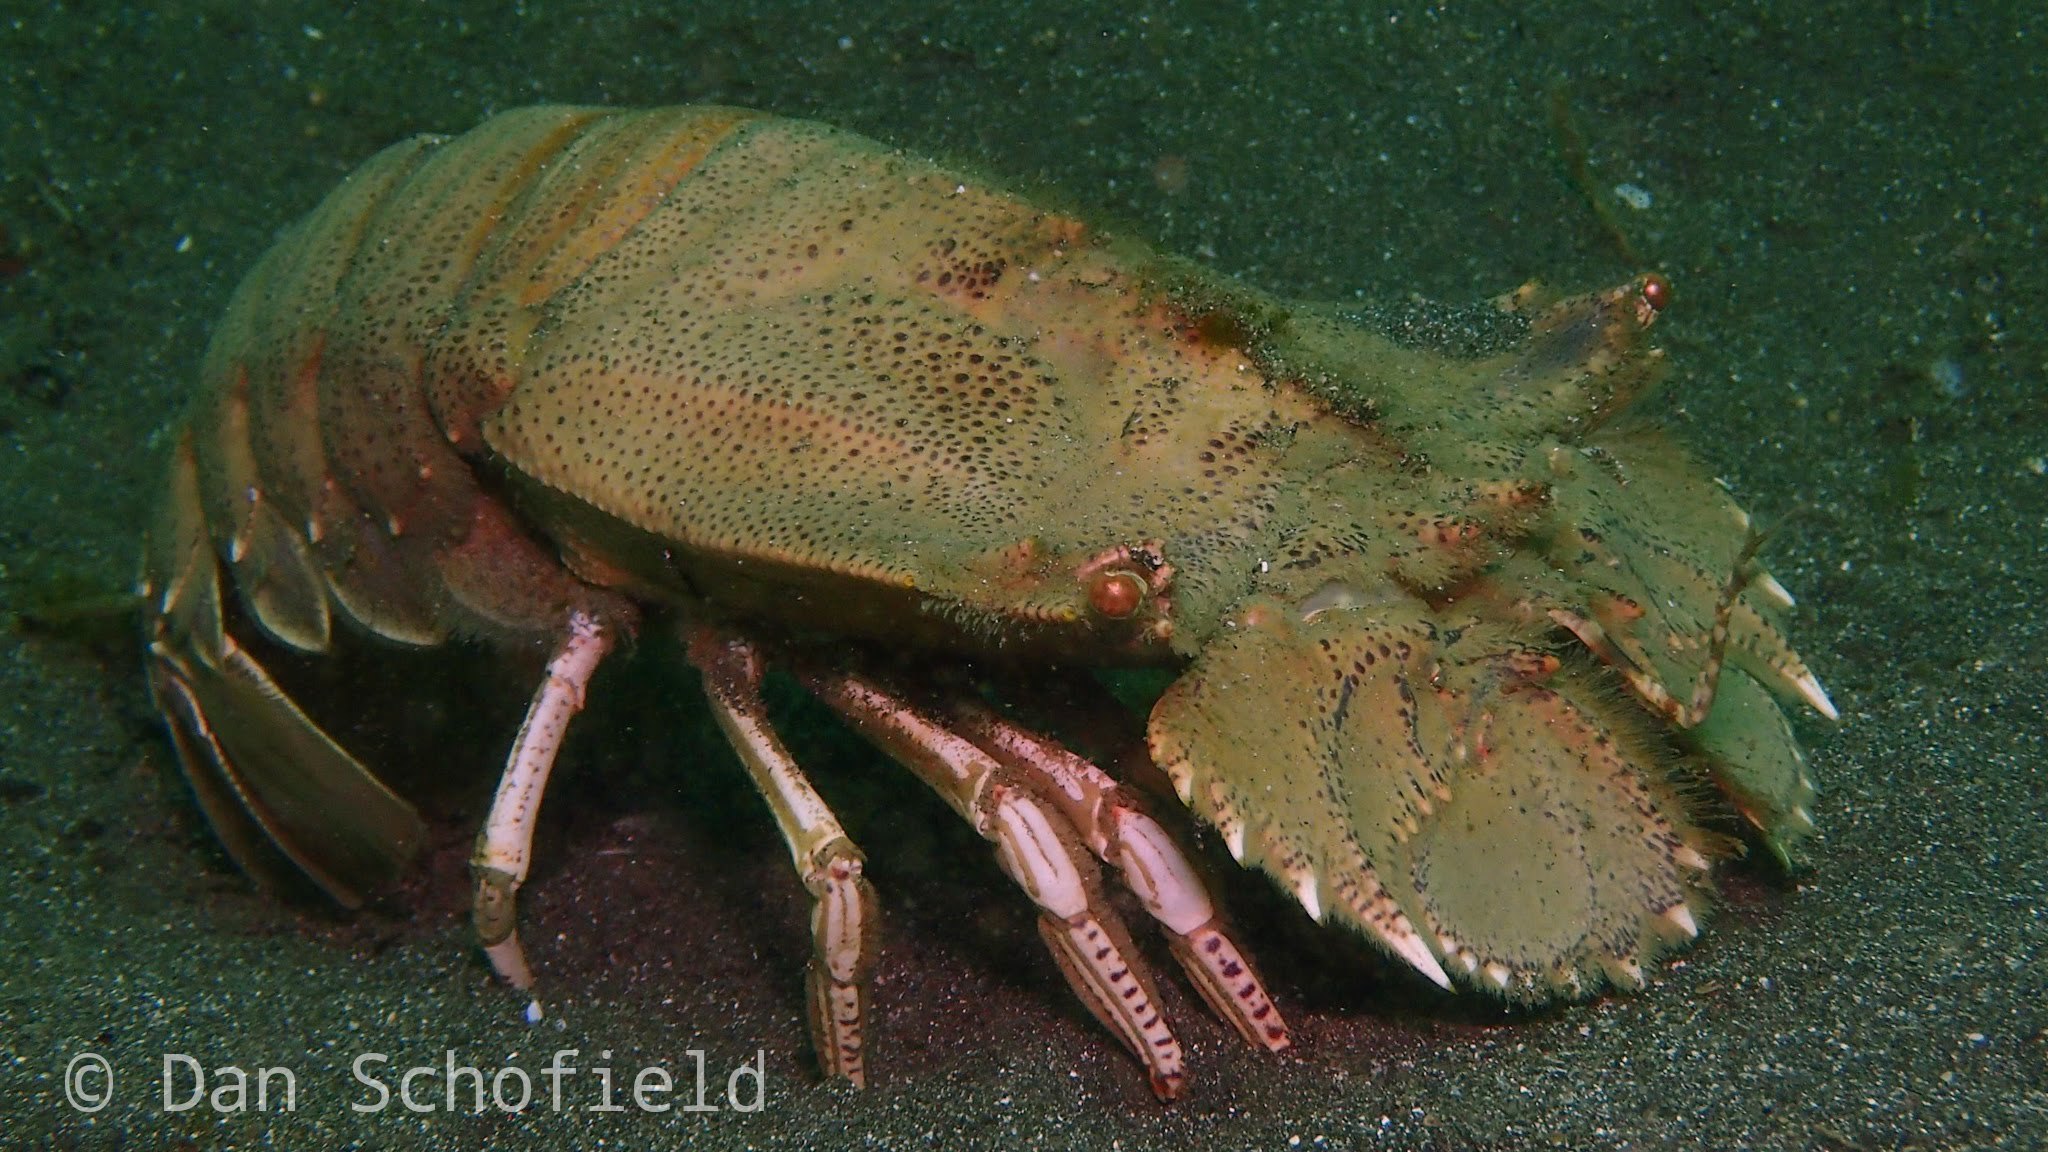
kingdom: Animalia
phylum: Arthropoda
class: Malacostraca
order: Decapoda
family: Scyllaridae
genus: Thenus
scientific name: Thenus orientalis
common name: Flathead lobster
